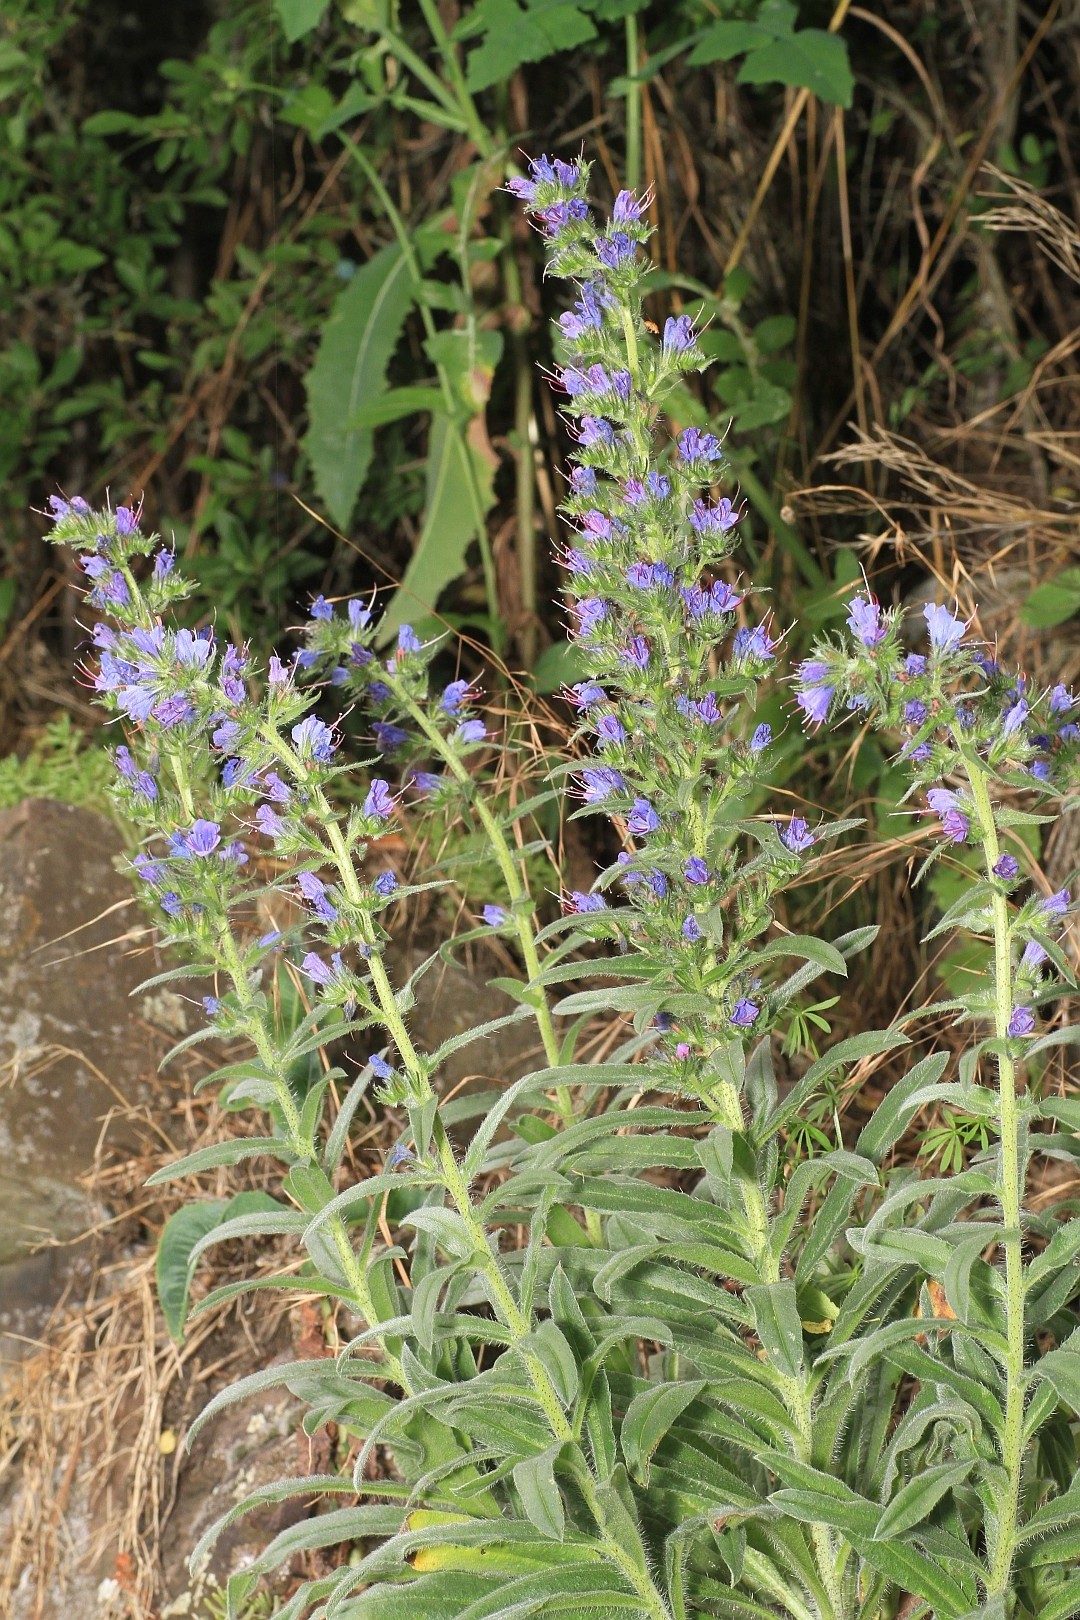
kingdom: Plantae
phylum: Tracheophyta
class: Magnoliopsida
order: Boraginales
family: Boraginaceae
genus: Echium
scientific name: Echium vulgare
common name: Common viper's bugloss
